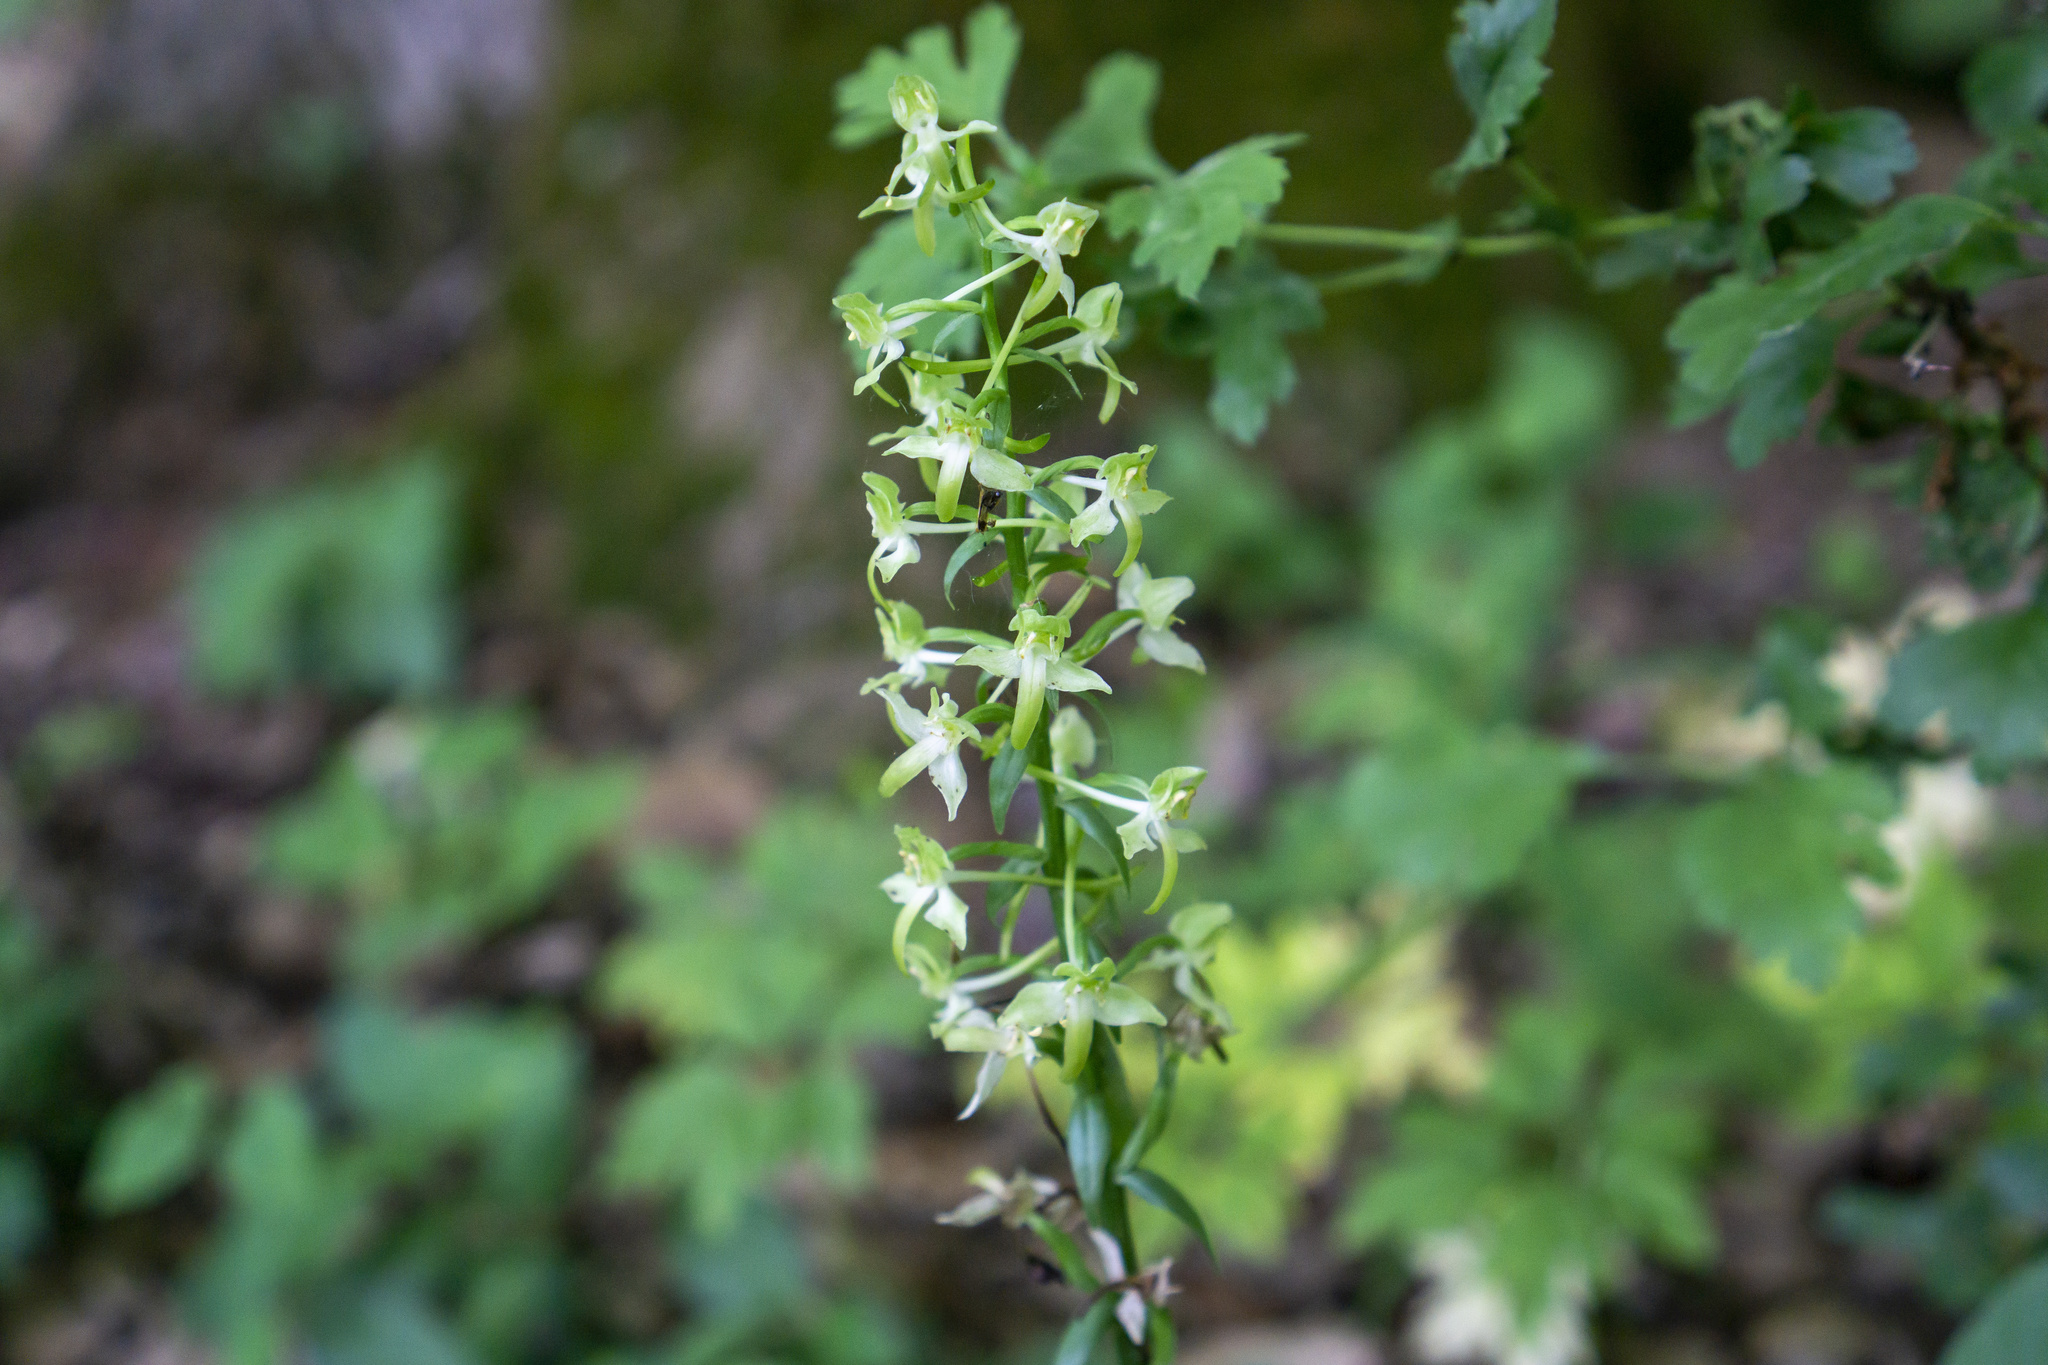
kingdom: Plantae
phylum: Tracheophyta
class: Liliopsida
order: Asparagales
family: Orchidaceae
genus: Platanthera
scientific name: Platanthera chlorantha
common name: Greater butterfly-orchid
